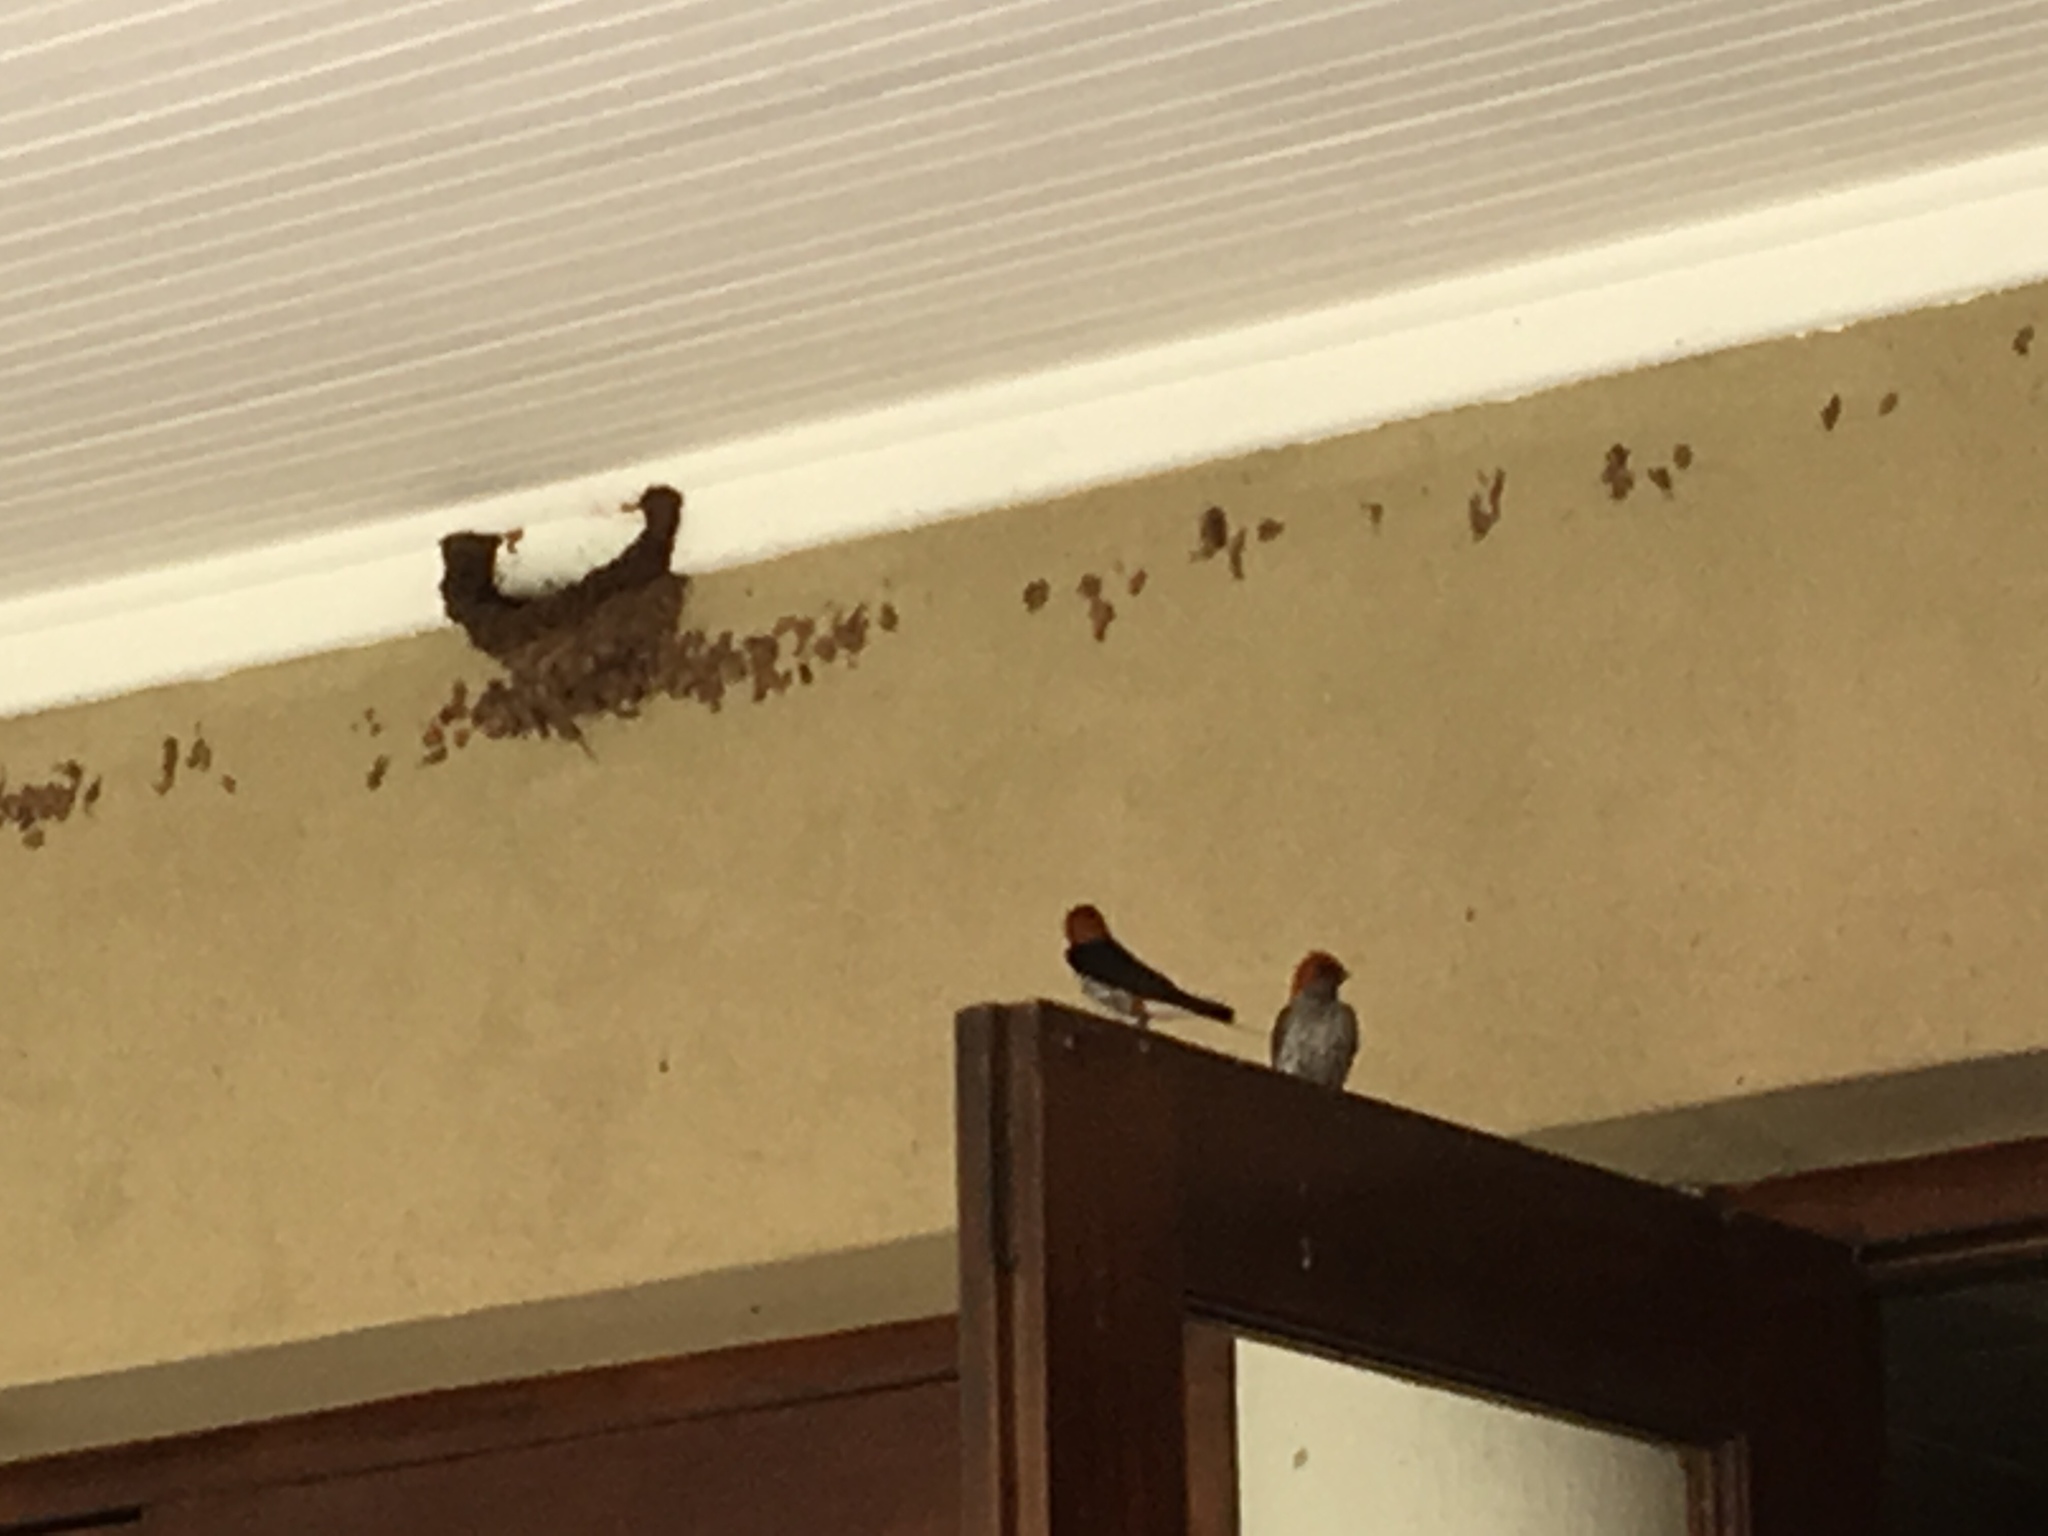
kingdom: Animalia
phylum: Chordata
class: Aves
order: Passeriformes
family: Hirundinidae
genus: Cecropis
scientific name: Cecropis abyssinica
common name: Lesser striped-swallow
